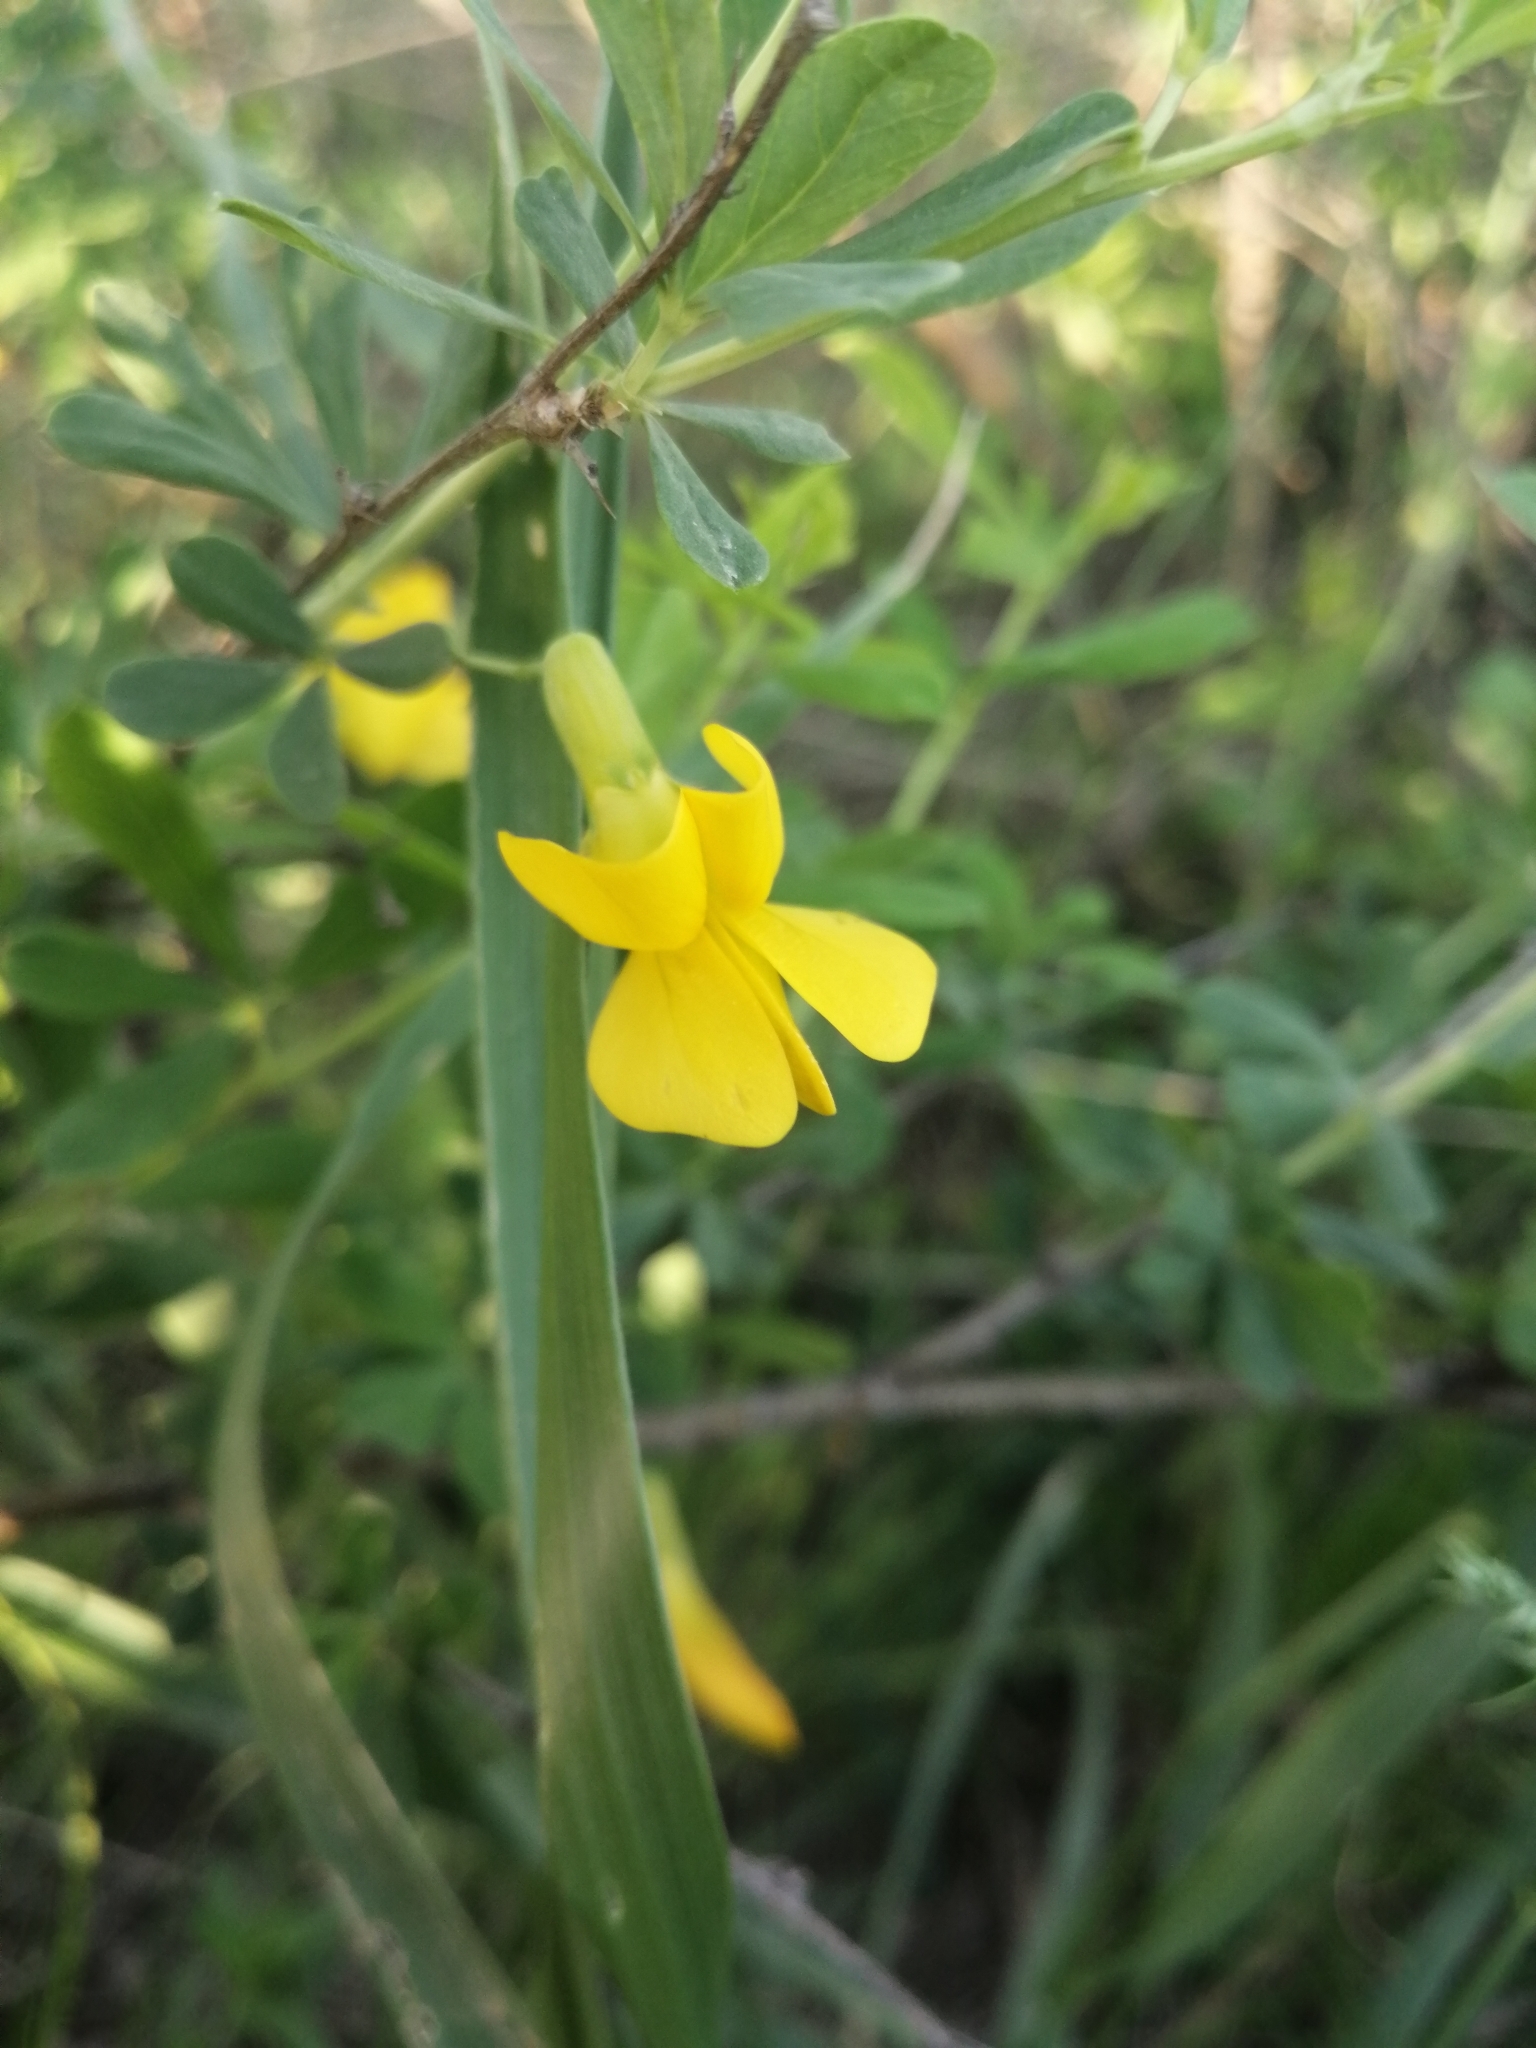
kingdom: Plantae
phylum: Tracheophyta
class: Magnoliopsida
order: Fabales
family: Fabaceae
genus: Caragana
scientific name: Caragana frutex
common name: Russian peashrub
